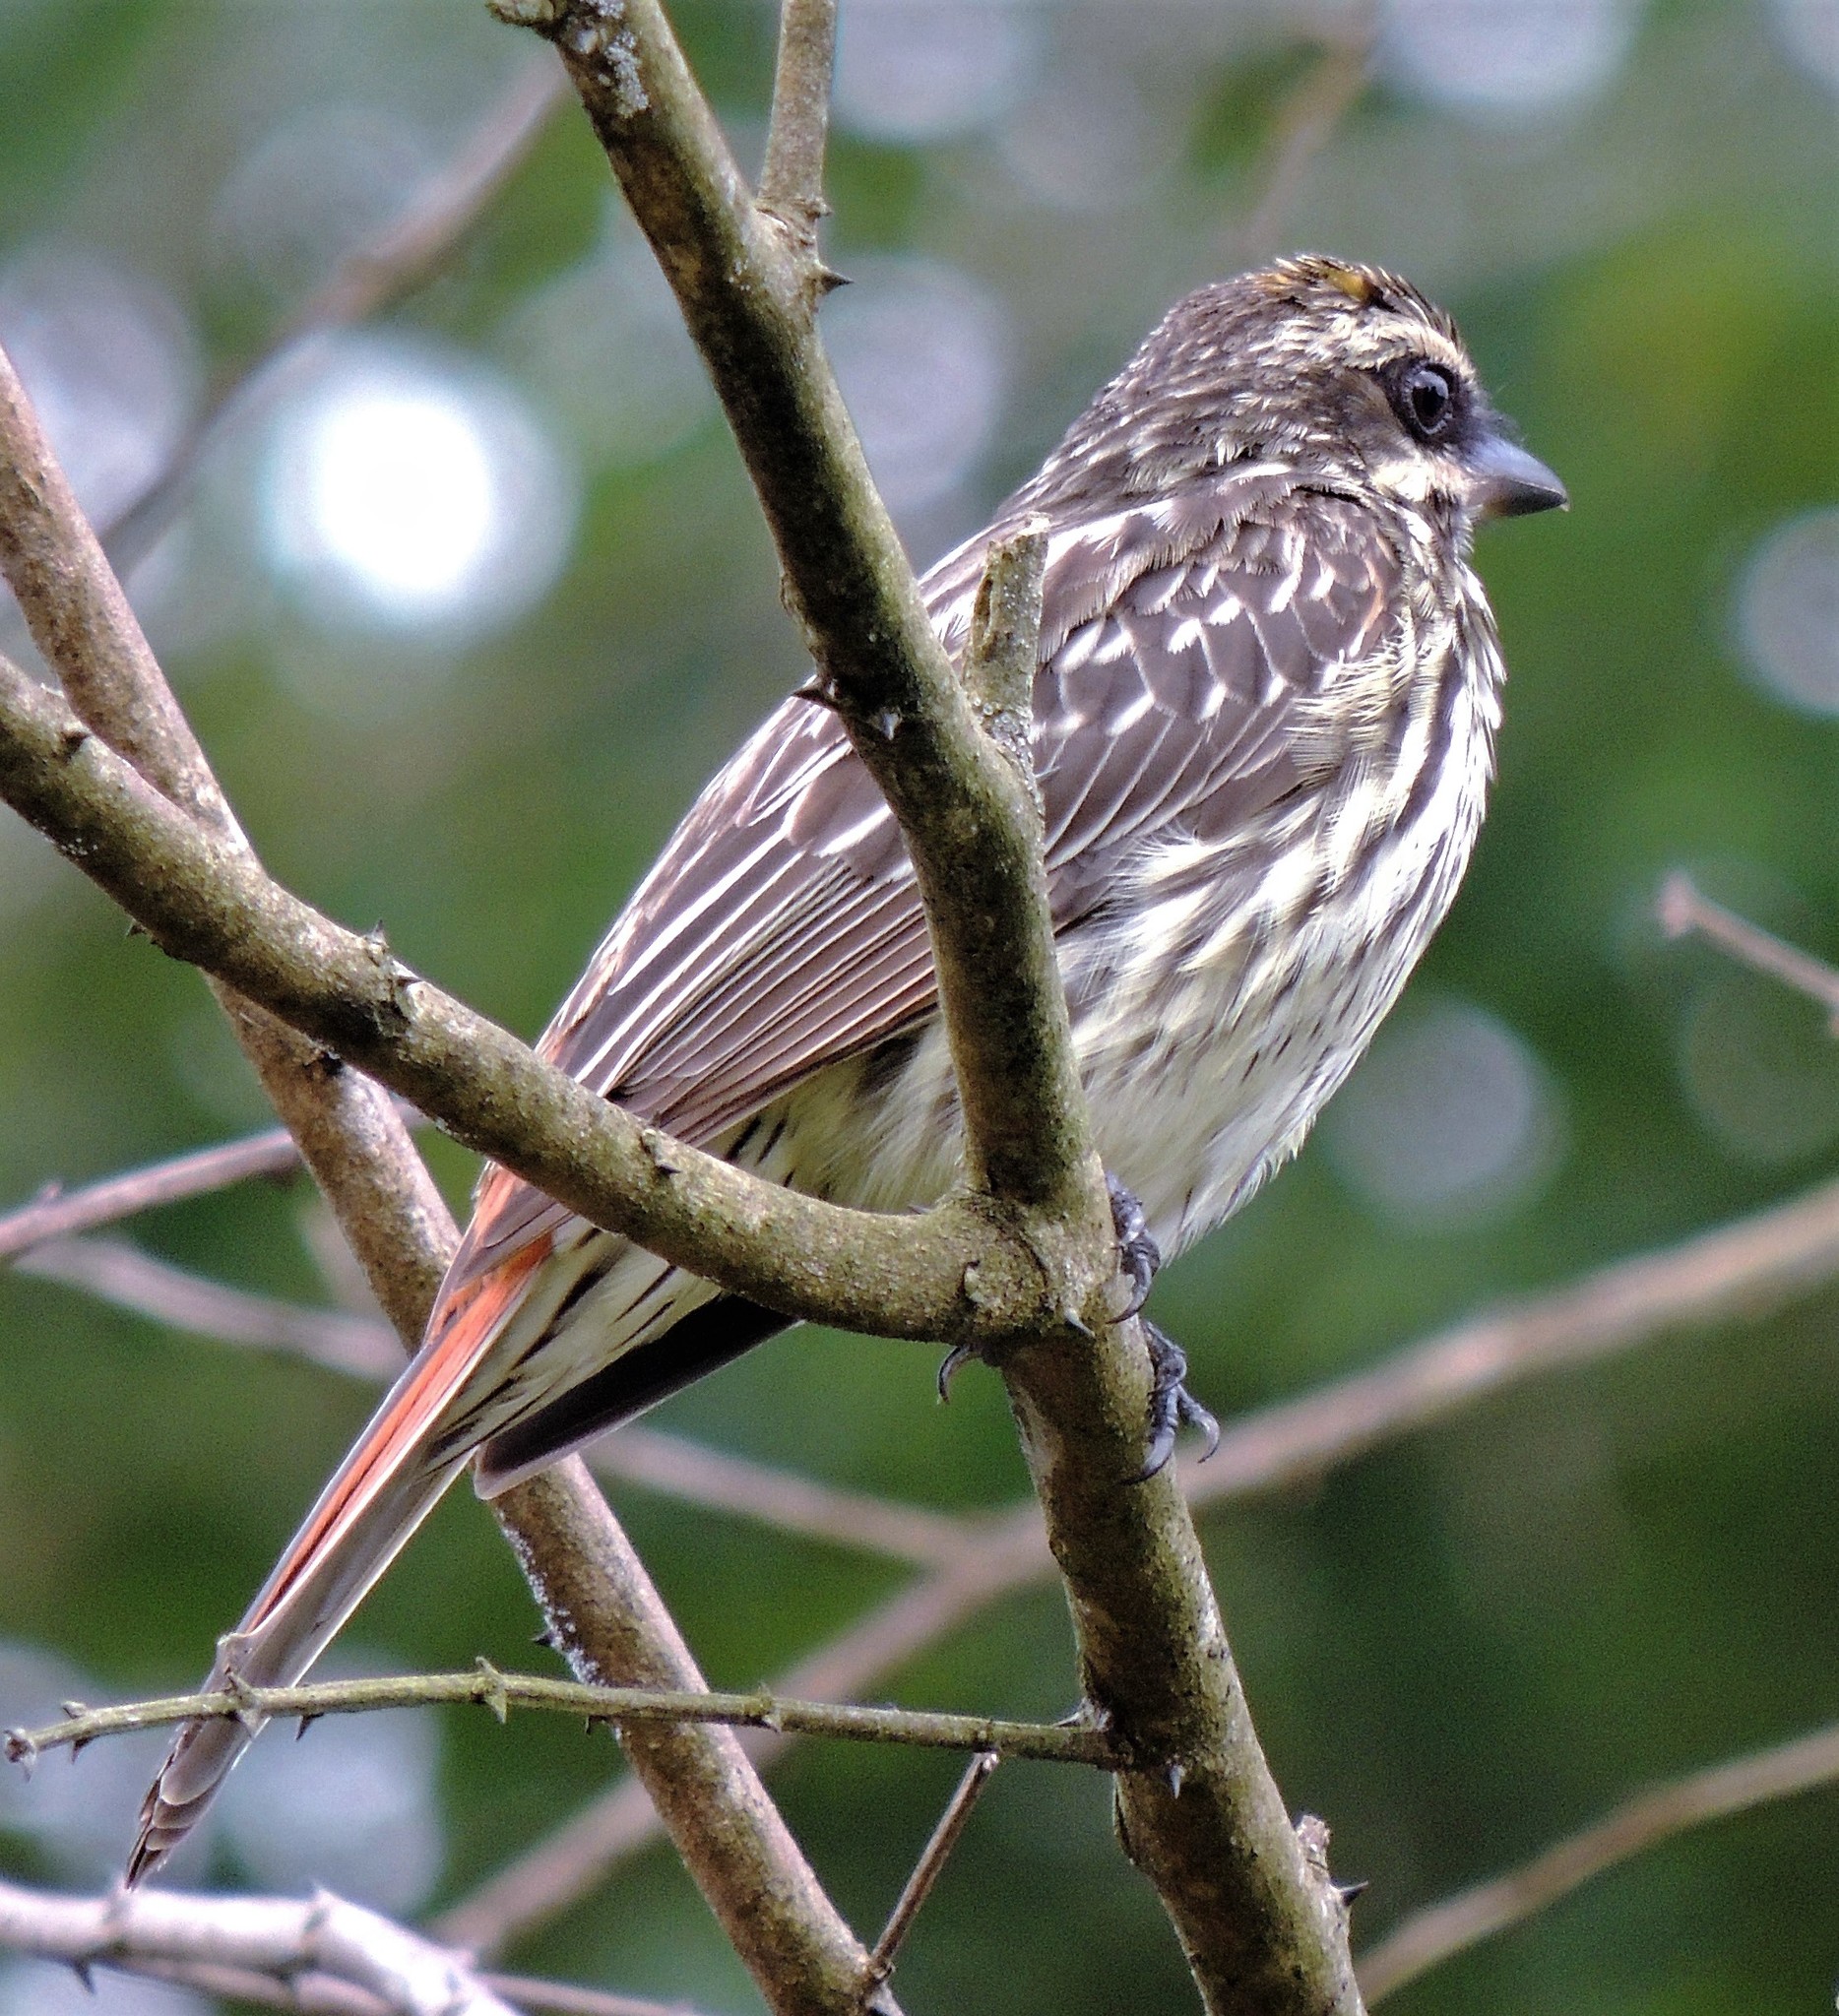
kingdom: Animalia
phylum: Chordata
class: Aves
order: Passeriformes
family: Tyrannidae
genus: Myiodynastes
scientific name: Myiodynastes maculatus
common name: Streaked flycatcher
